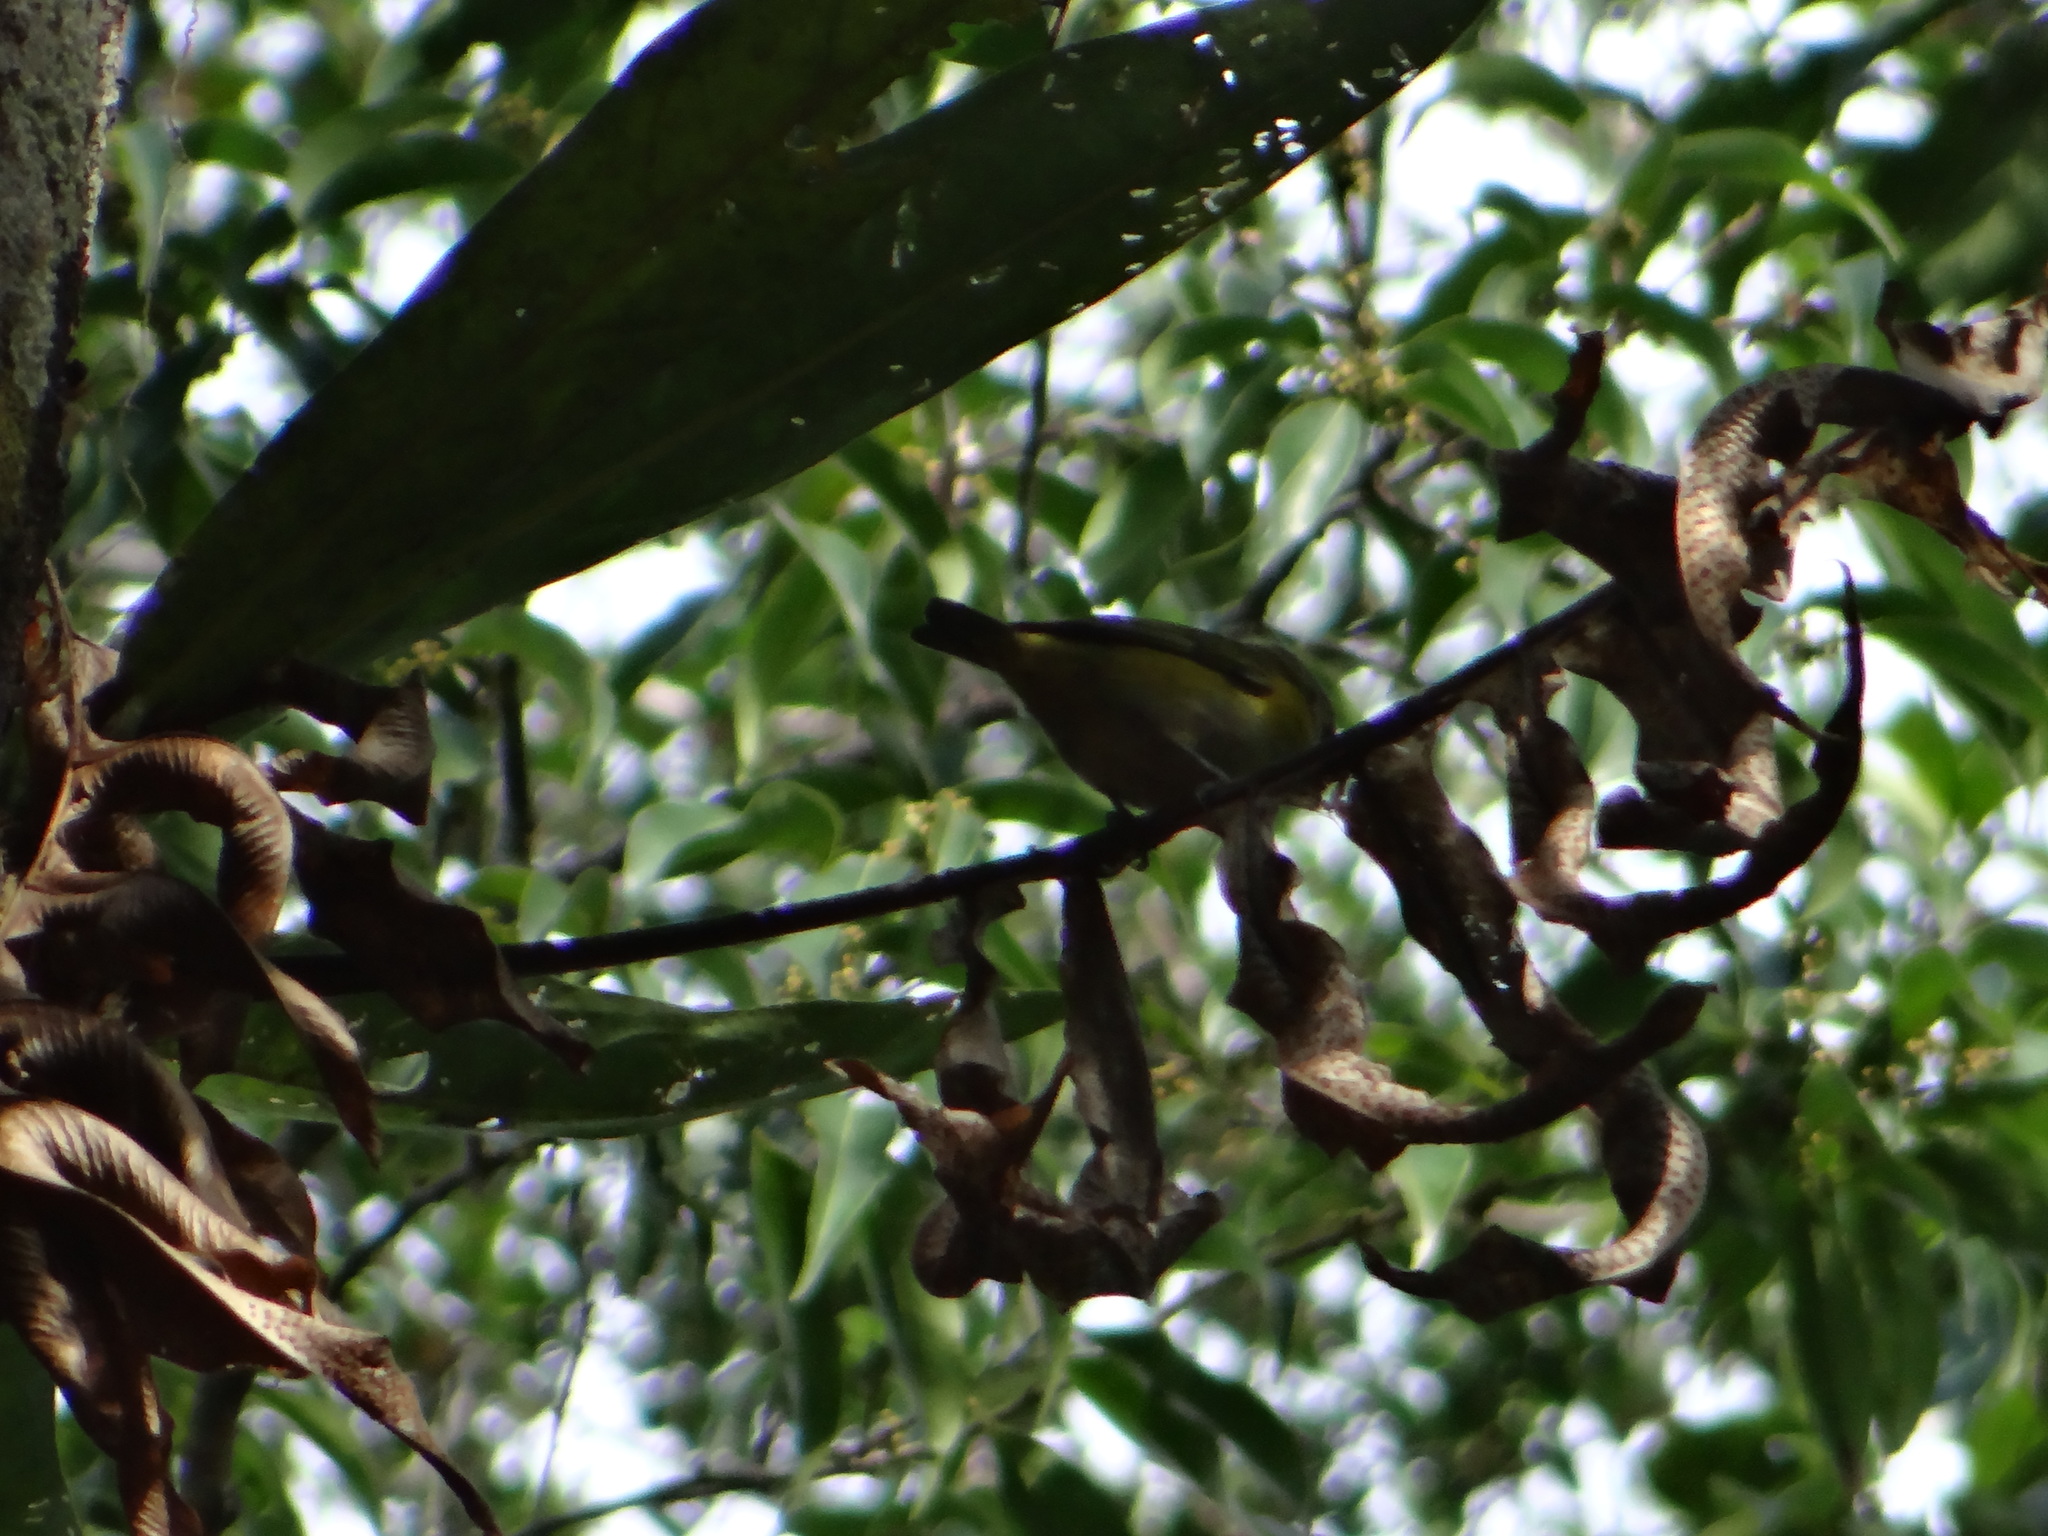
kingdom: Animalia
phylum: Chordata
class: Aves
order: Passeriformes
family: Fringillidae
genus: Euphonia
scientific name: Euphonia chrysopasta
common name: White-lored euphonia
